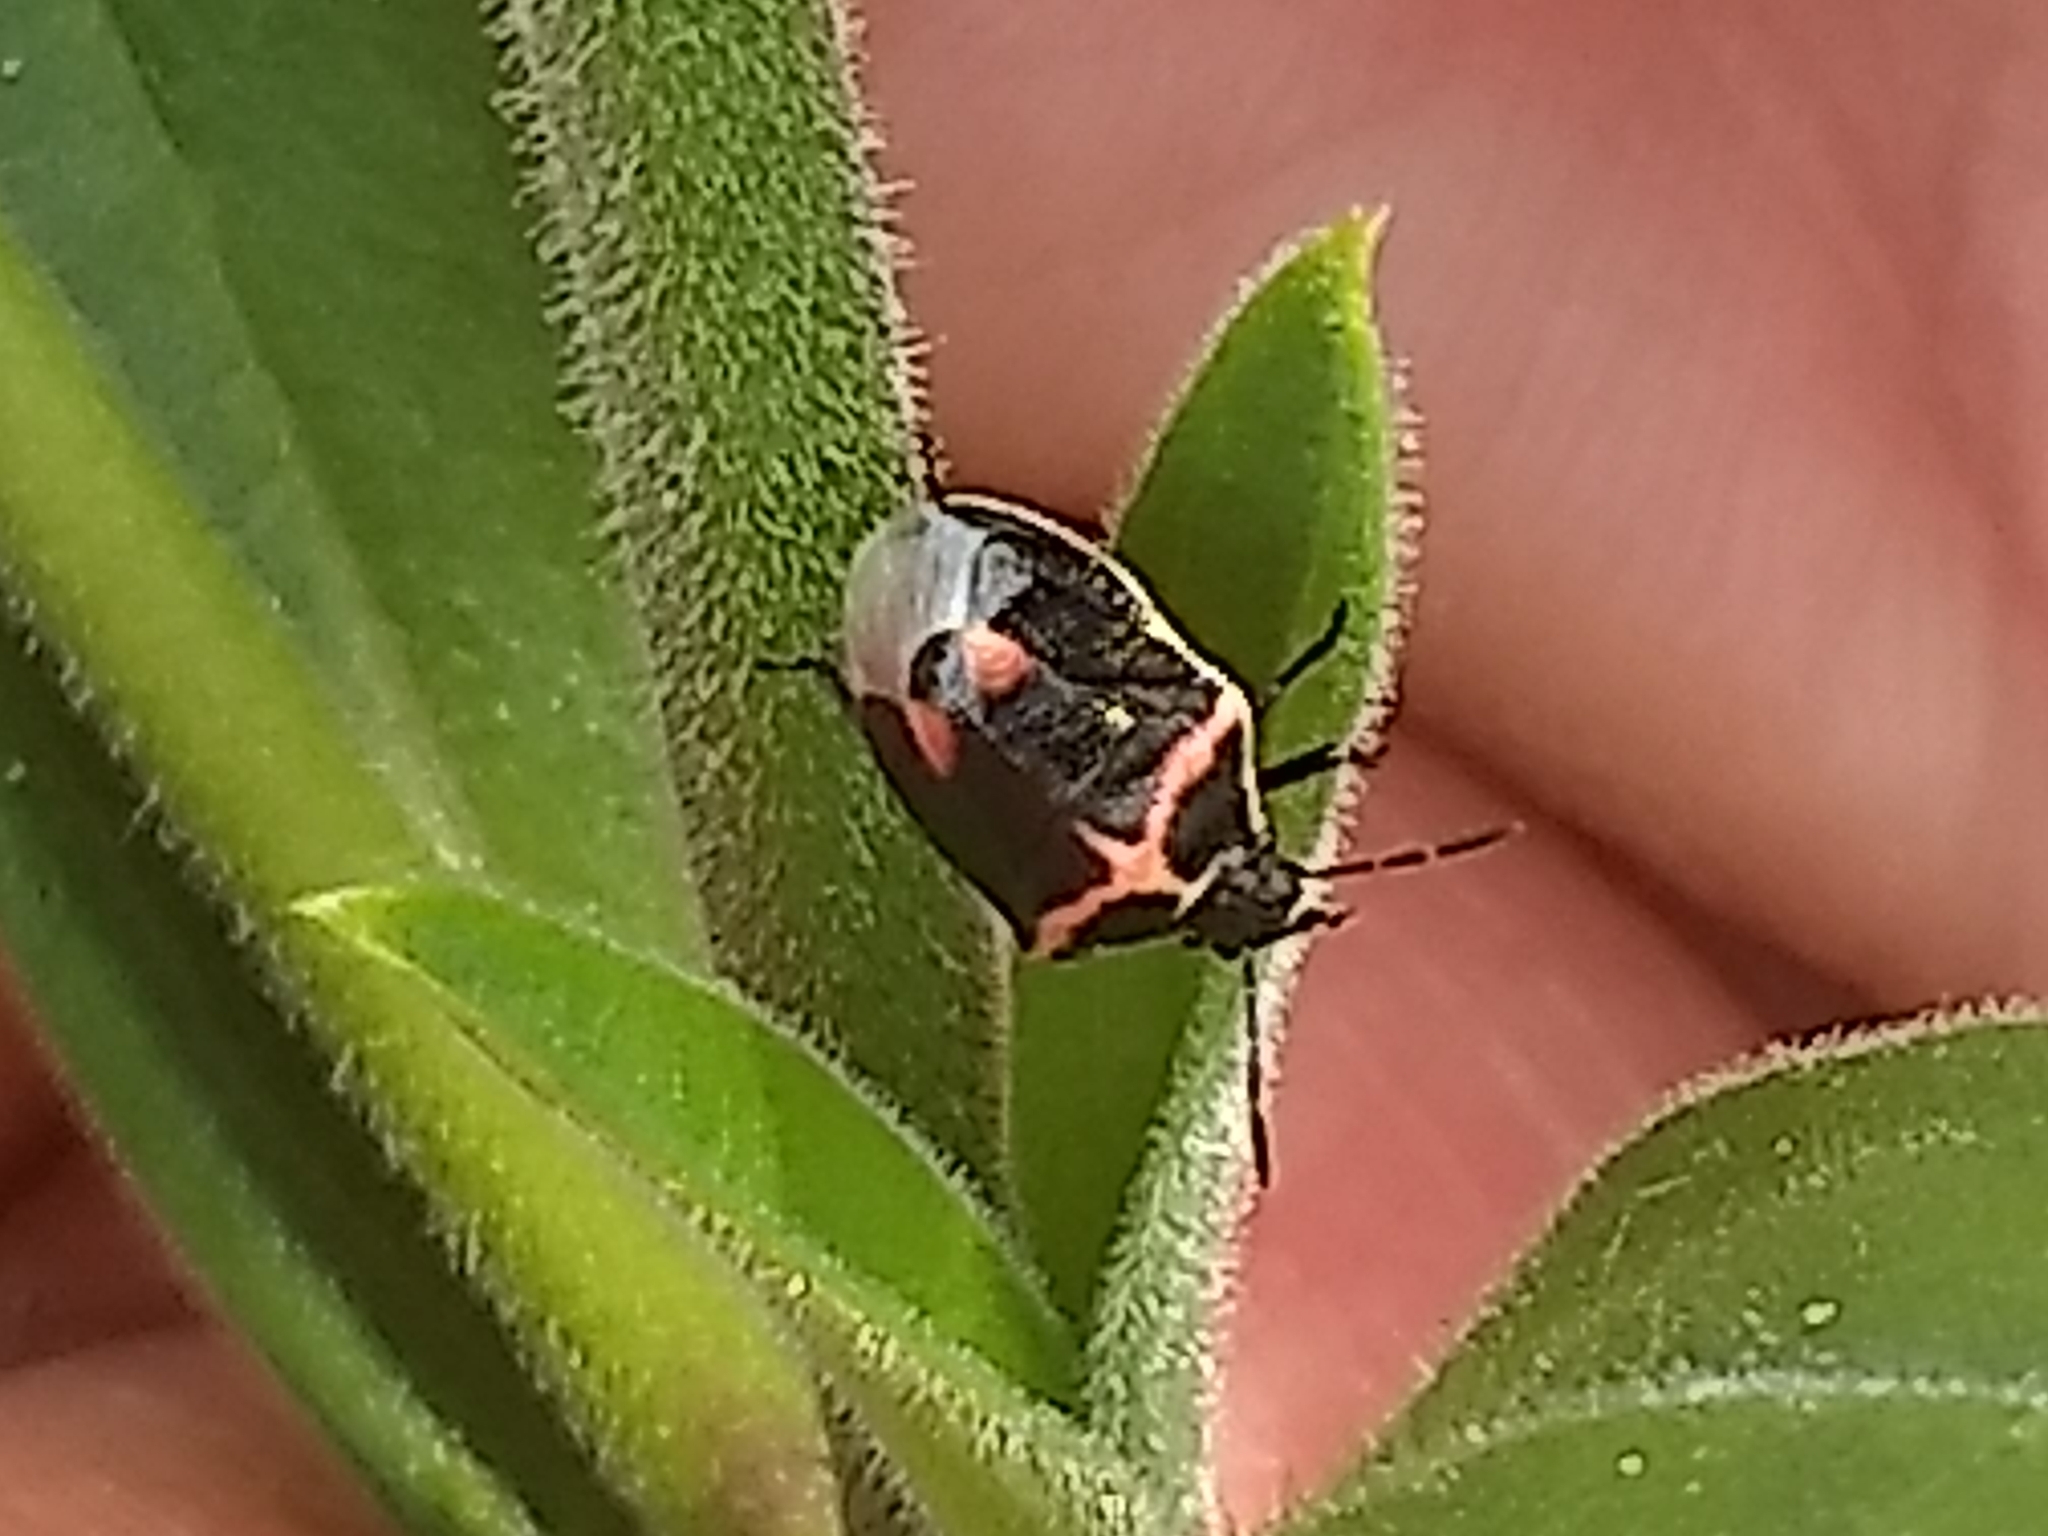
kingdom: Animalia
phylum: Arthropoda
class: Insecta
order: Hemiptera
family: Pentatomidae
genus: Cosmopepla
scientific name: Cosmopepla lintneriana
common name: Twice-stabbed stink bug
